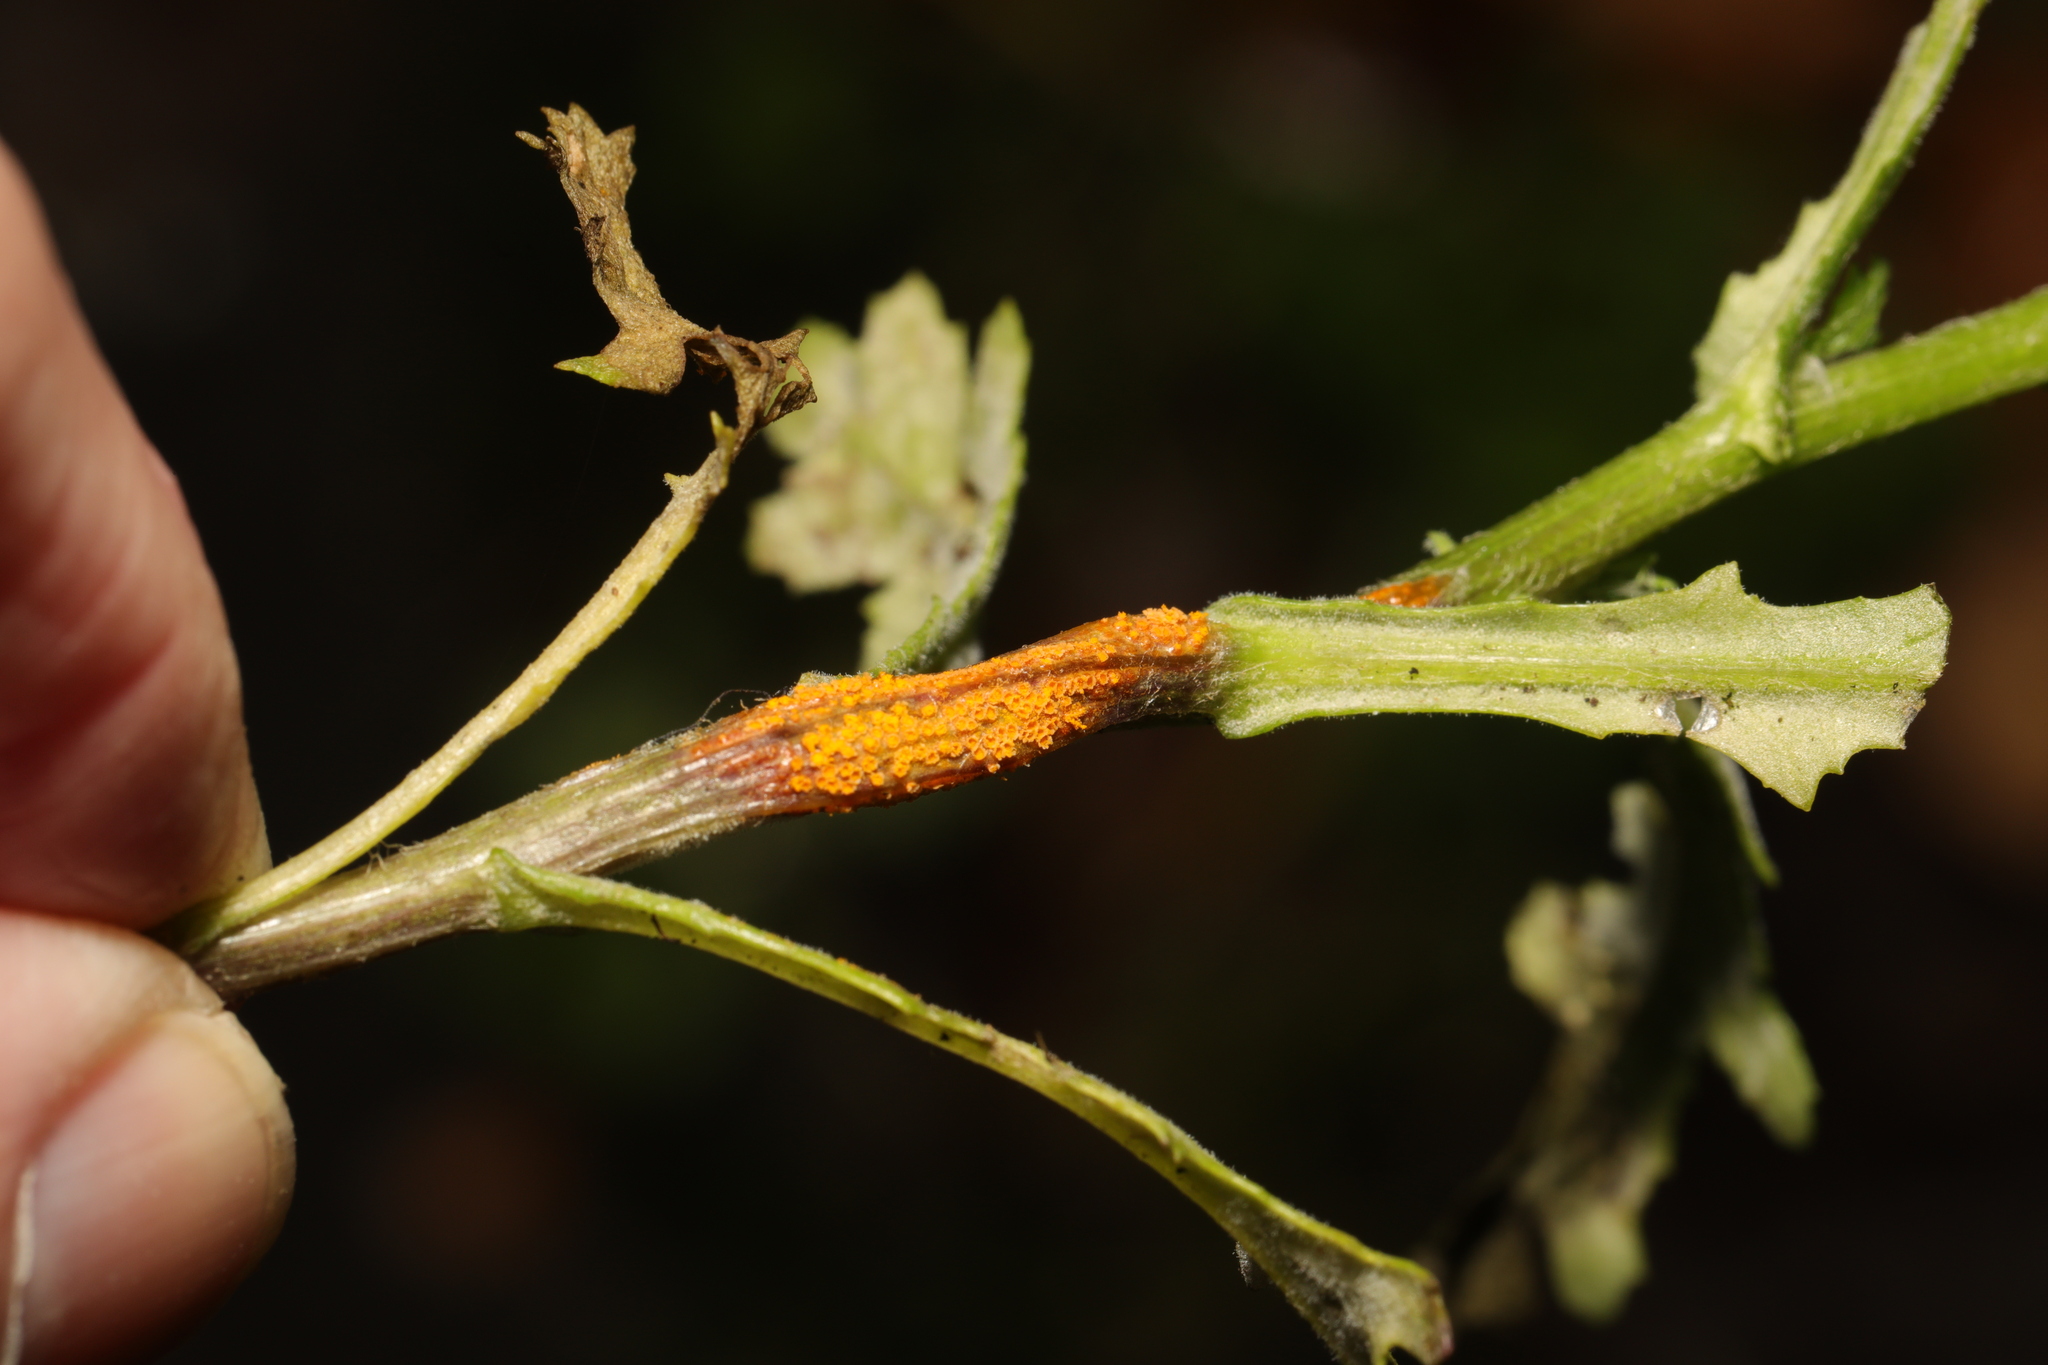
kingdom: Fungi
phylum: Basidiomycota
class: Pucciniomycetes
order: Pucciniales
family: Pucciniaceae
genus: Puccinia
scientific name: Puccinia lagenophorae
